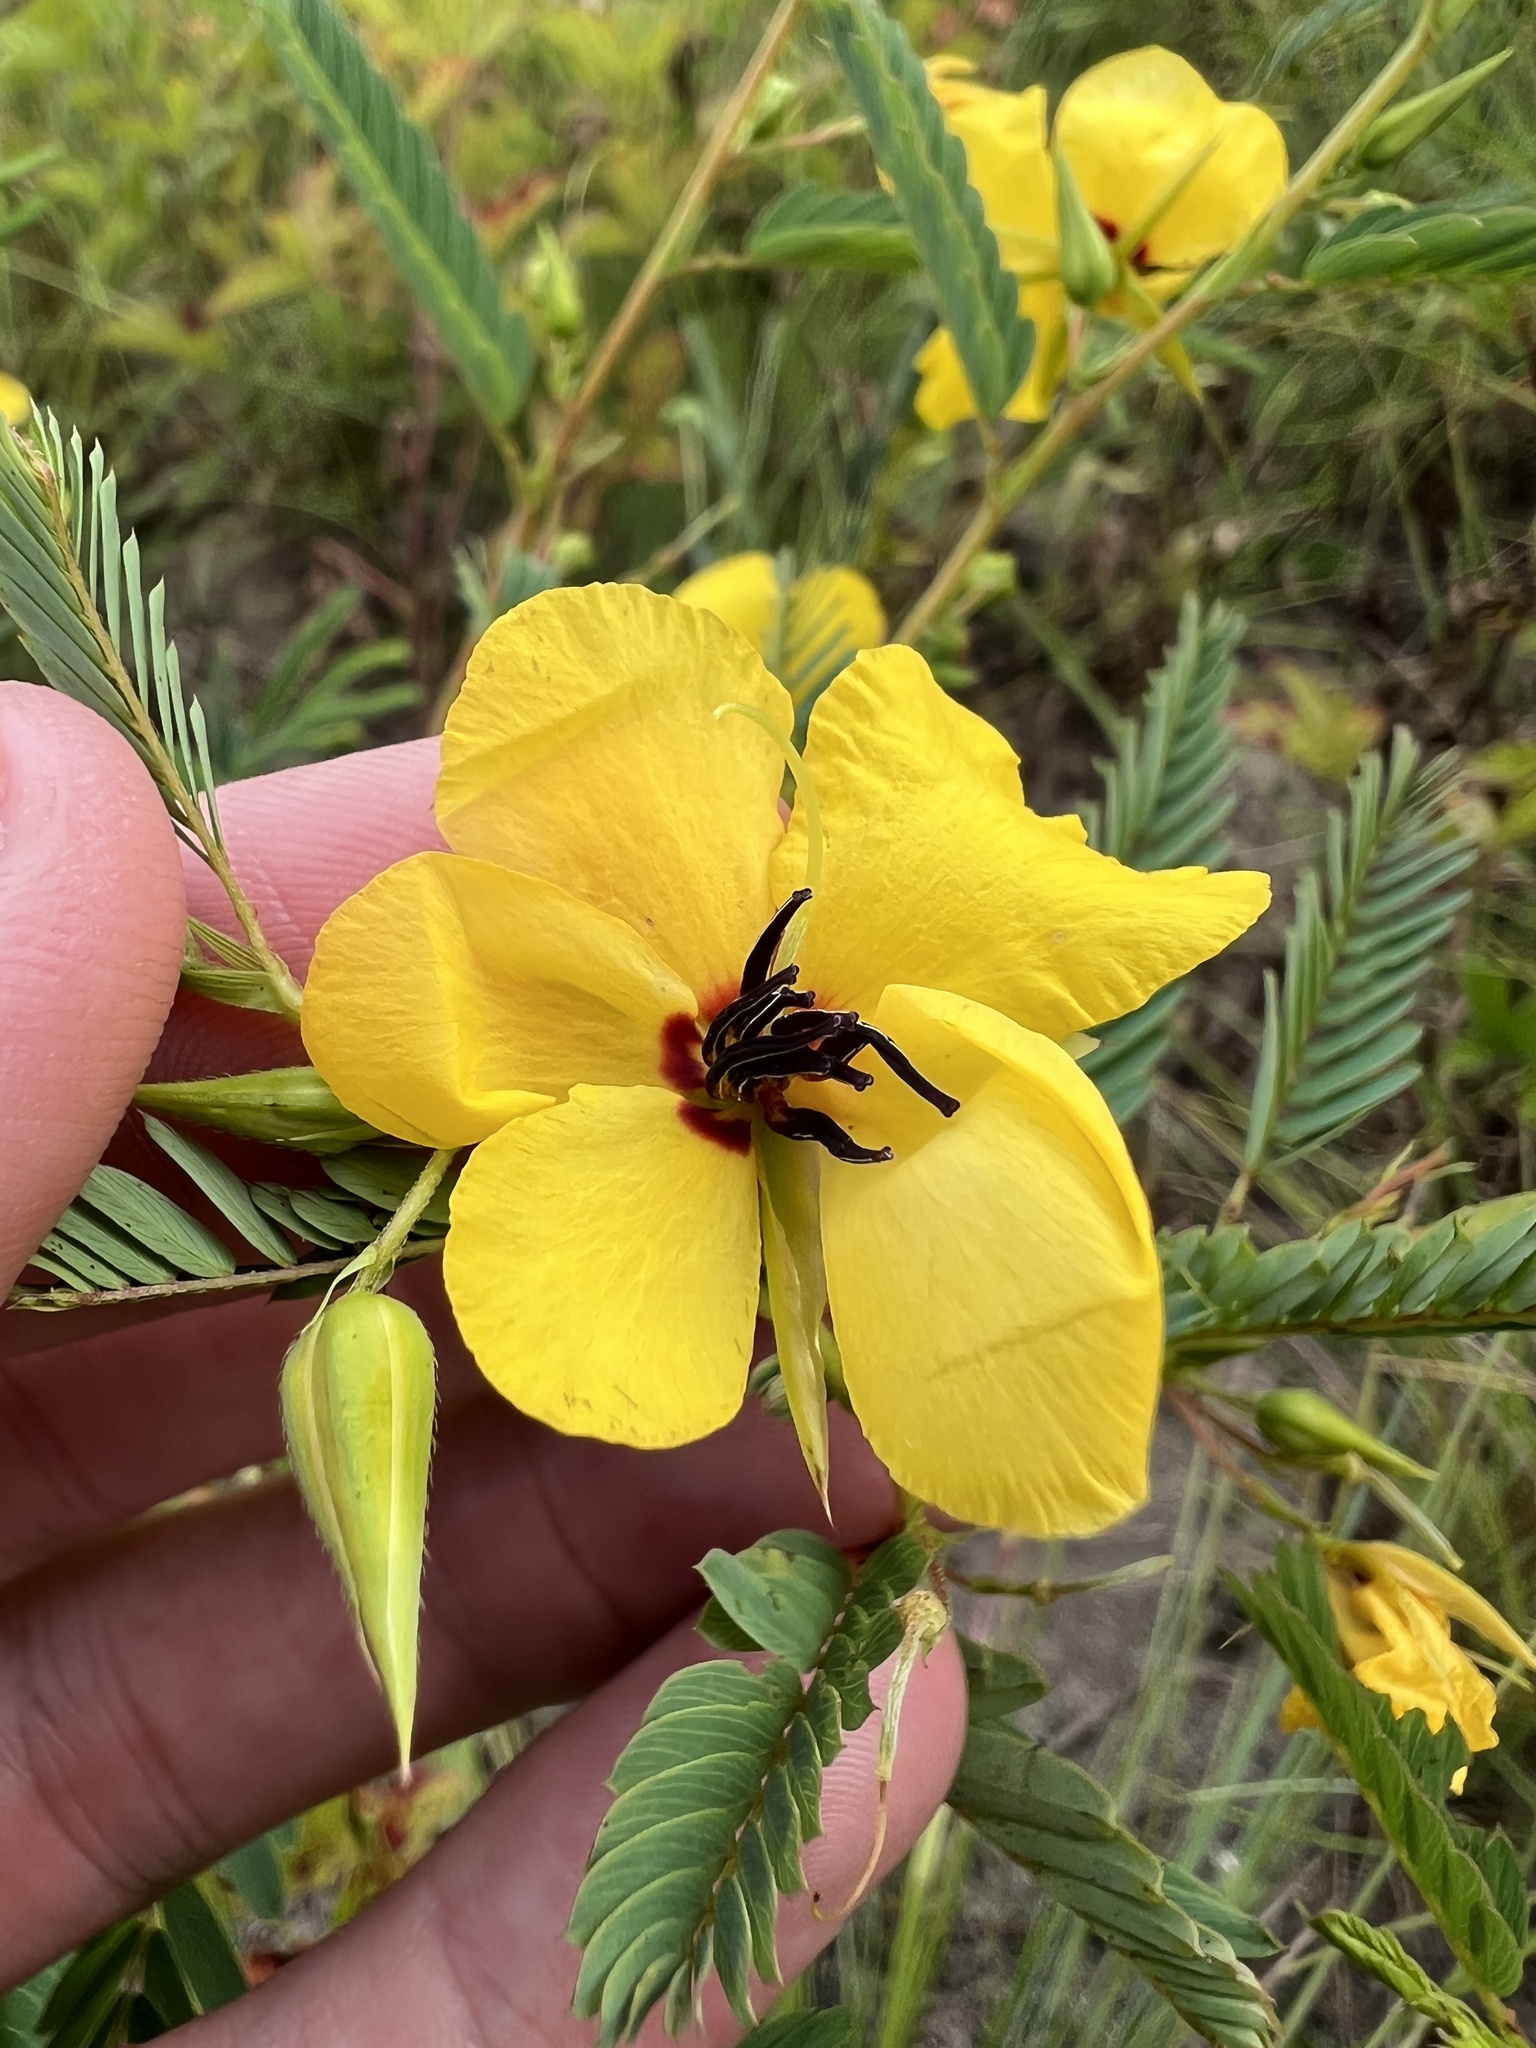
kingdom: Plantae
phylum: Tracheophyta
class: Magnoliopsida
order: Fabales
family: Fabaceae
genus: Chamaecrista
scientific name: Chamaecrista fasciculata
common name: Golden cassia
